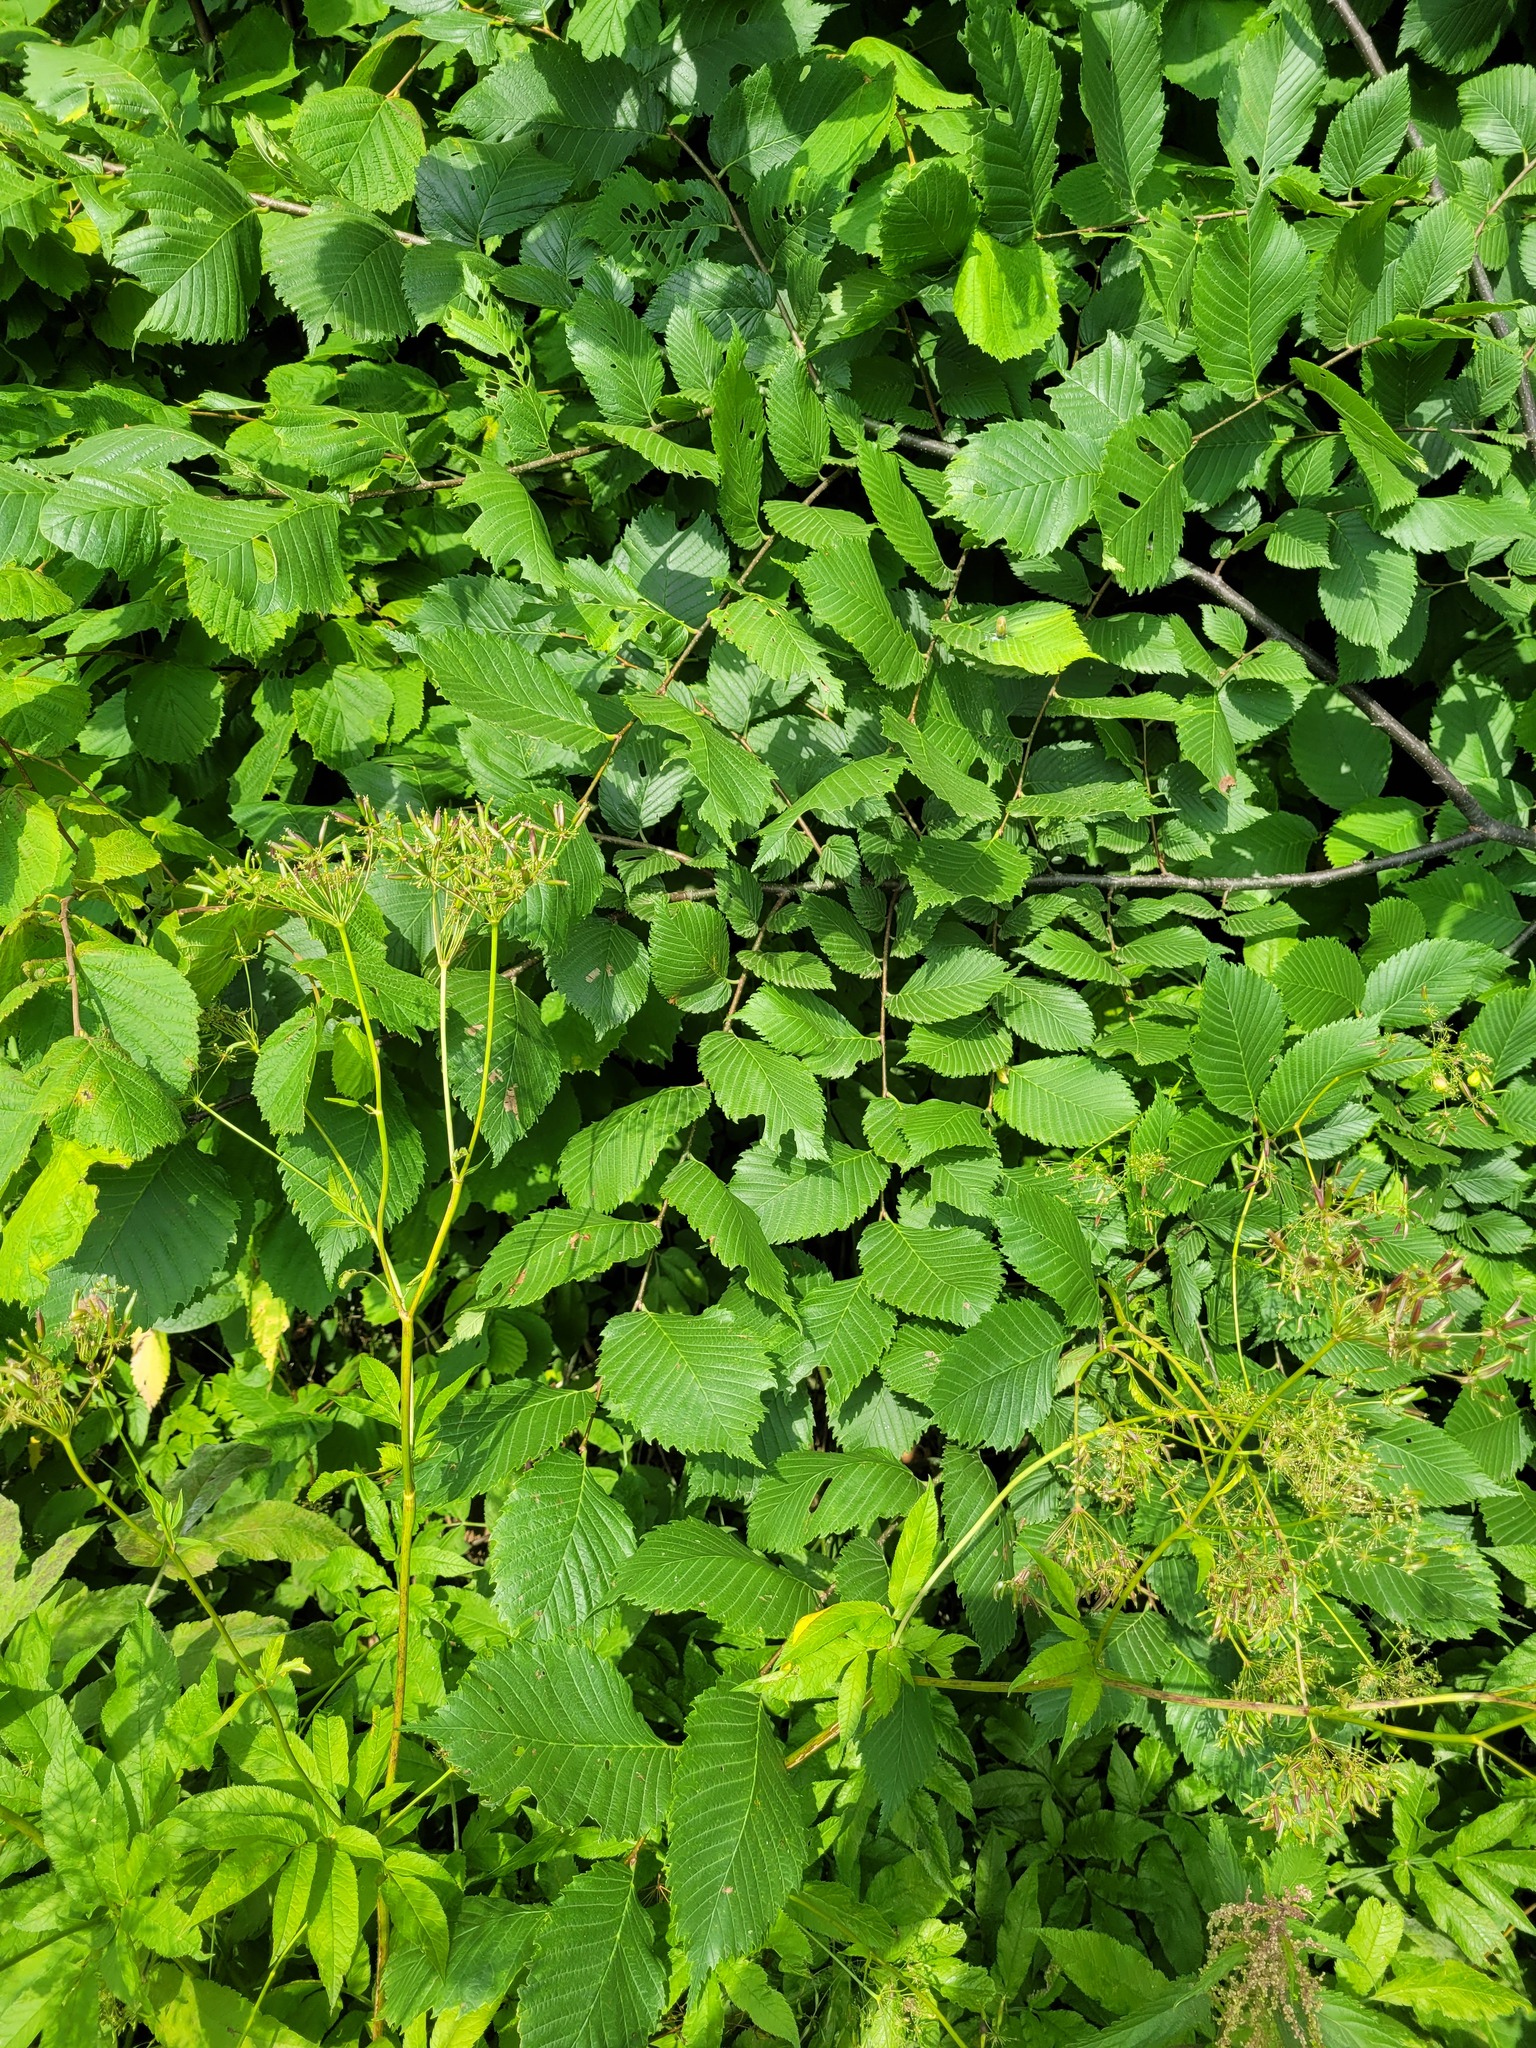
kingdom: Plantae
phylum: Tracheophyta
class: Magnoliopsida
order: Rosales
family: Ulmaceae
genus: Ulmus
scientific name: Ulmus laevis
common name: European white-elm
